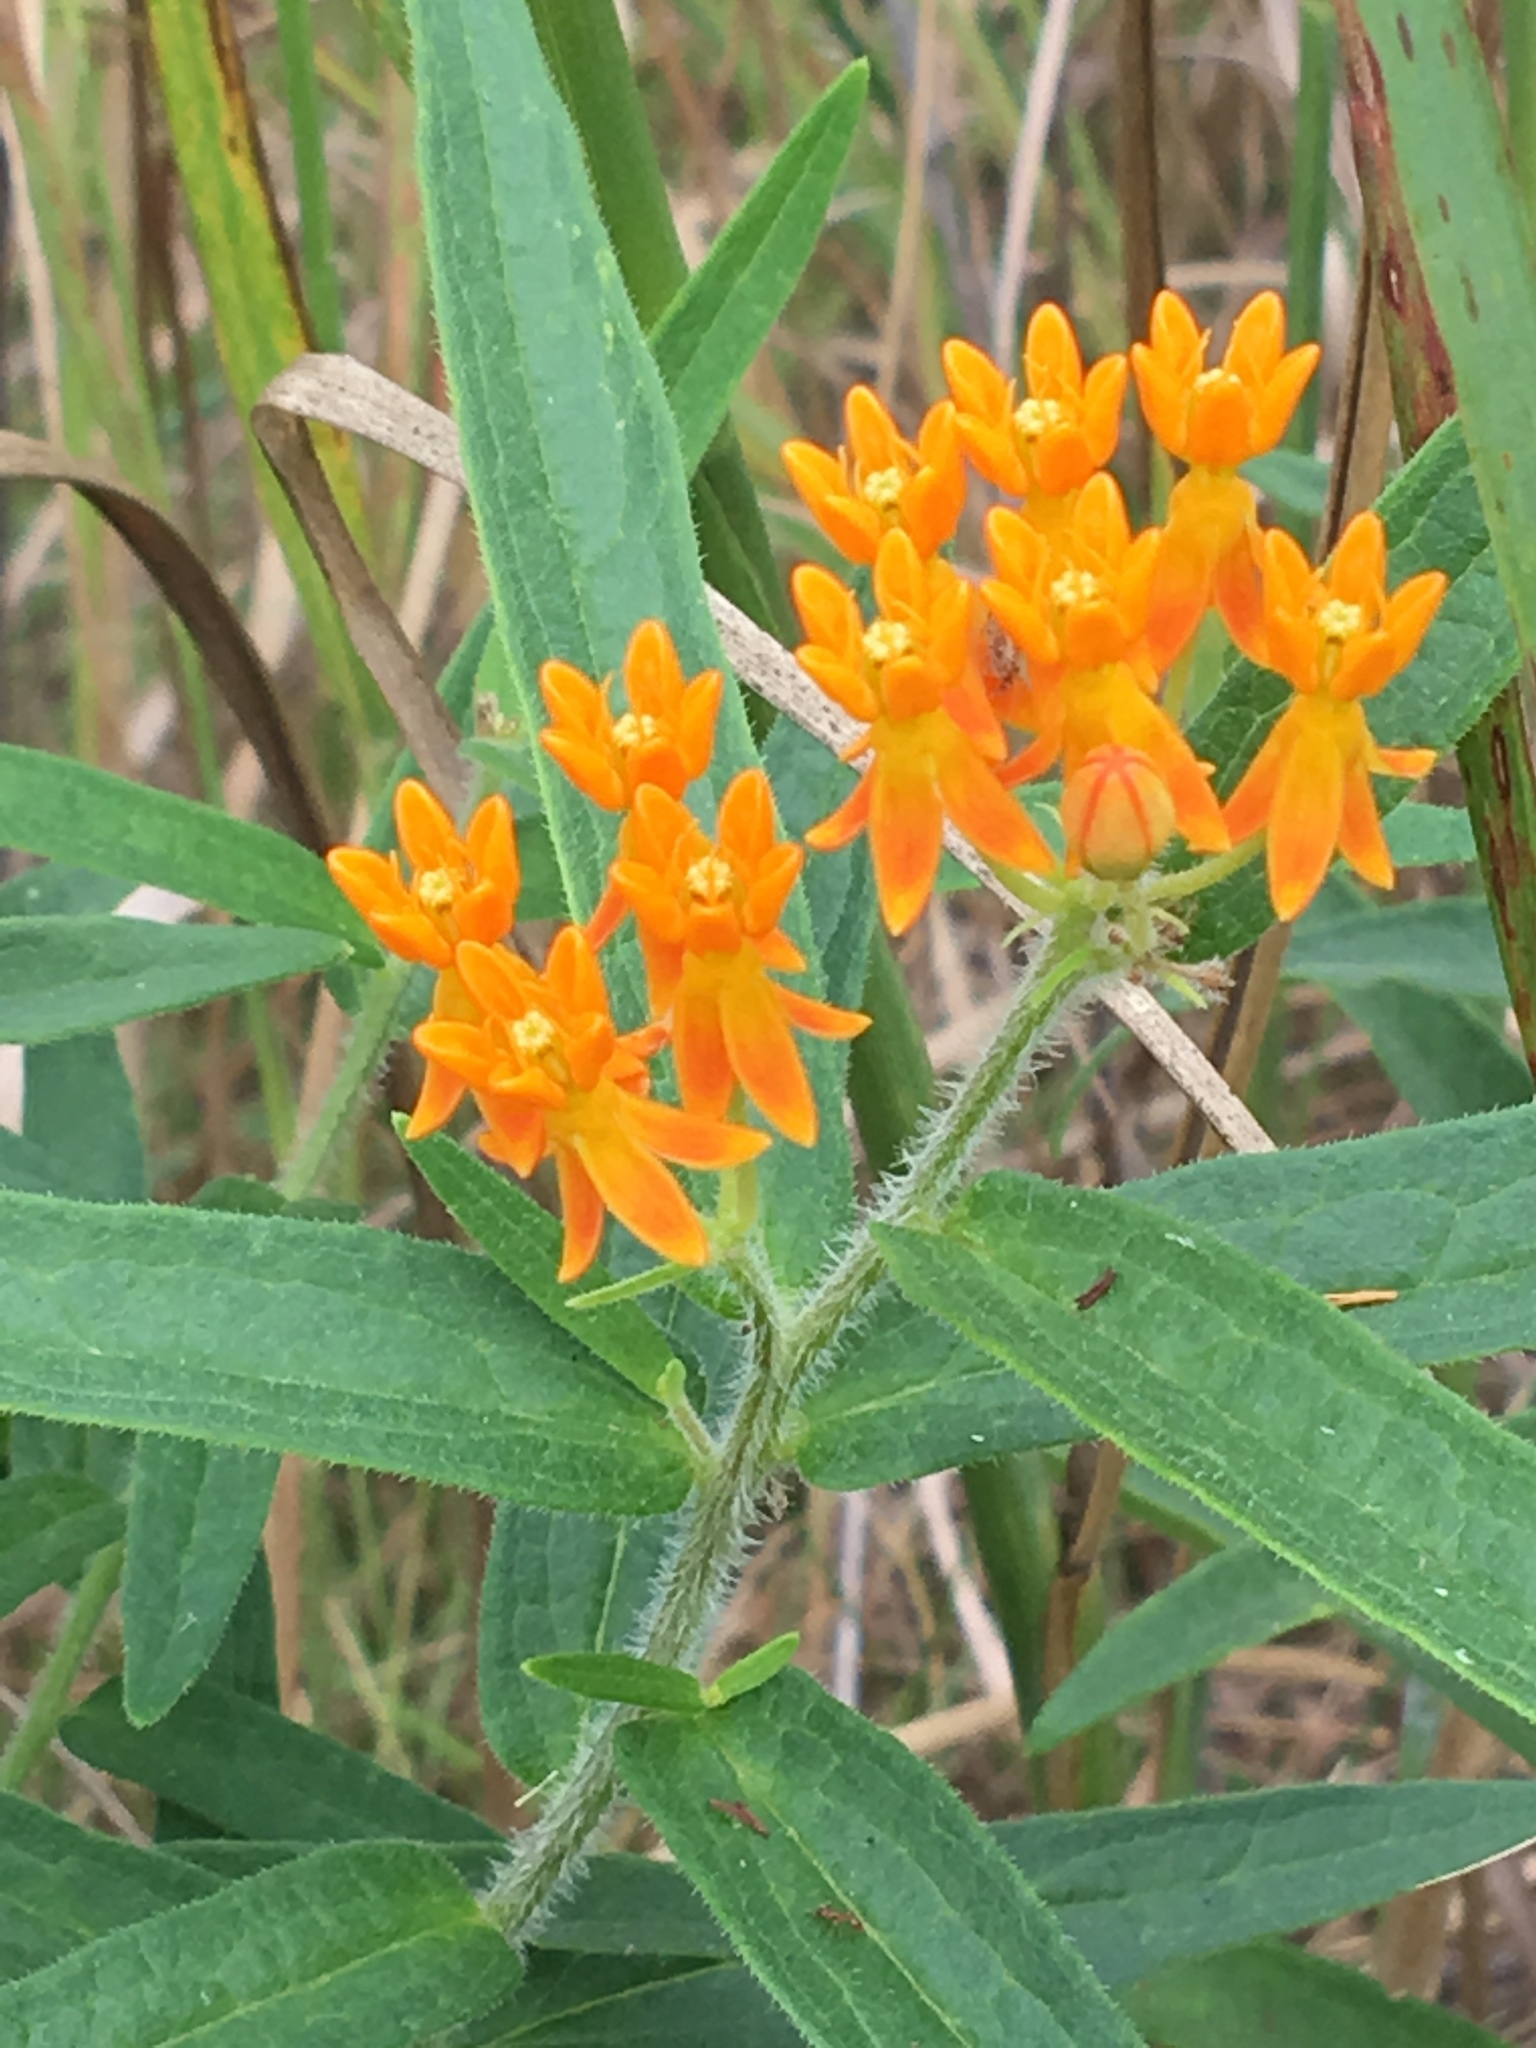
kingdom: Plantae
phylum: Tracheophyta
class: Magnoliopsida
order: Gentianales
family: Apocynaceae
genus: Asclepias
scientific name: Asclepias tuberosa
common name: Butterfly milkweed
